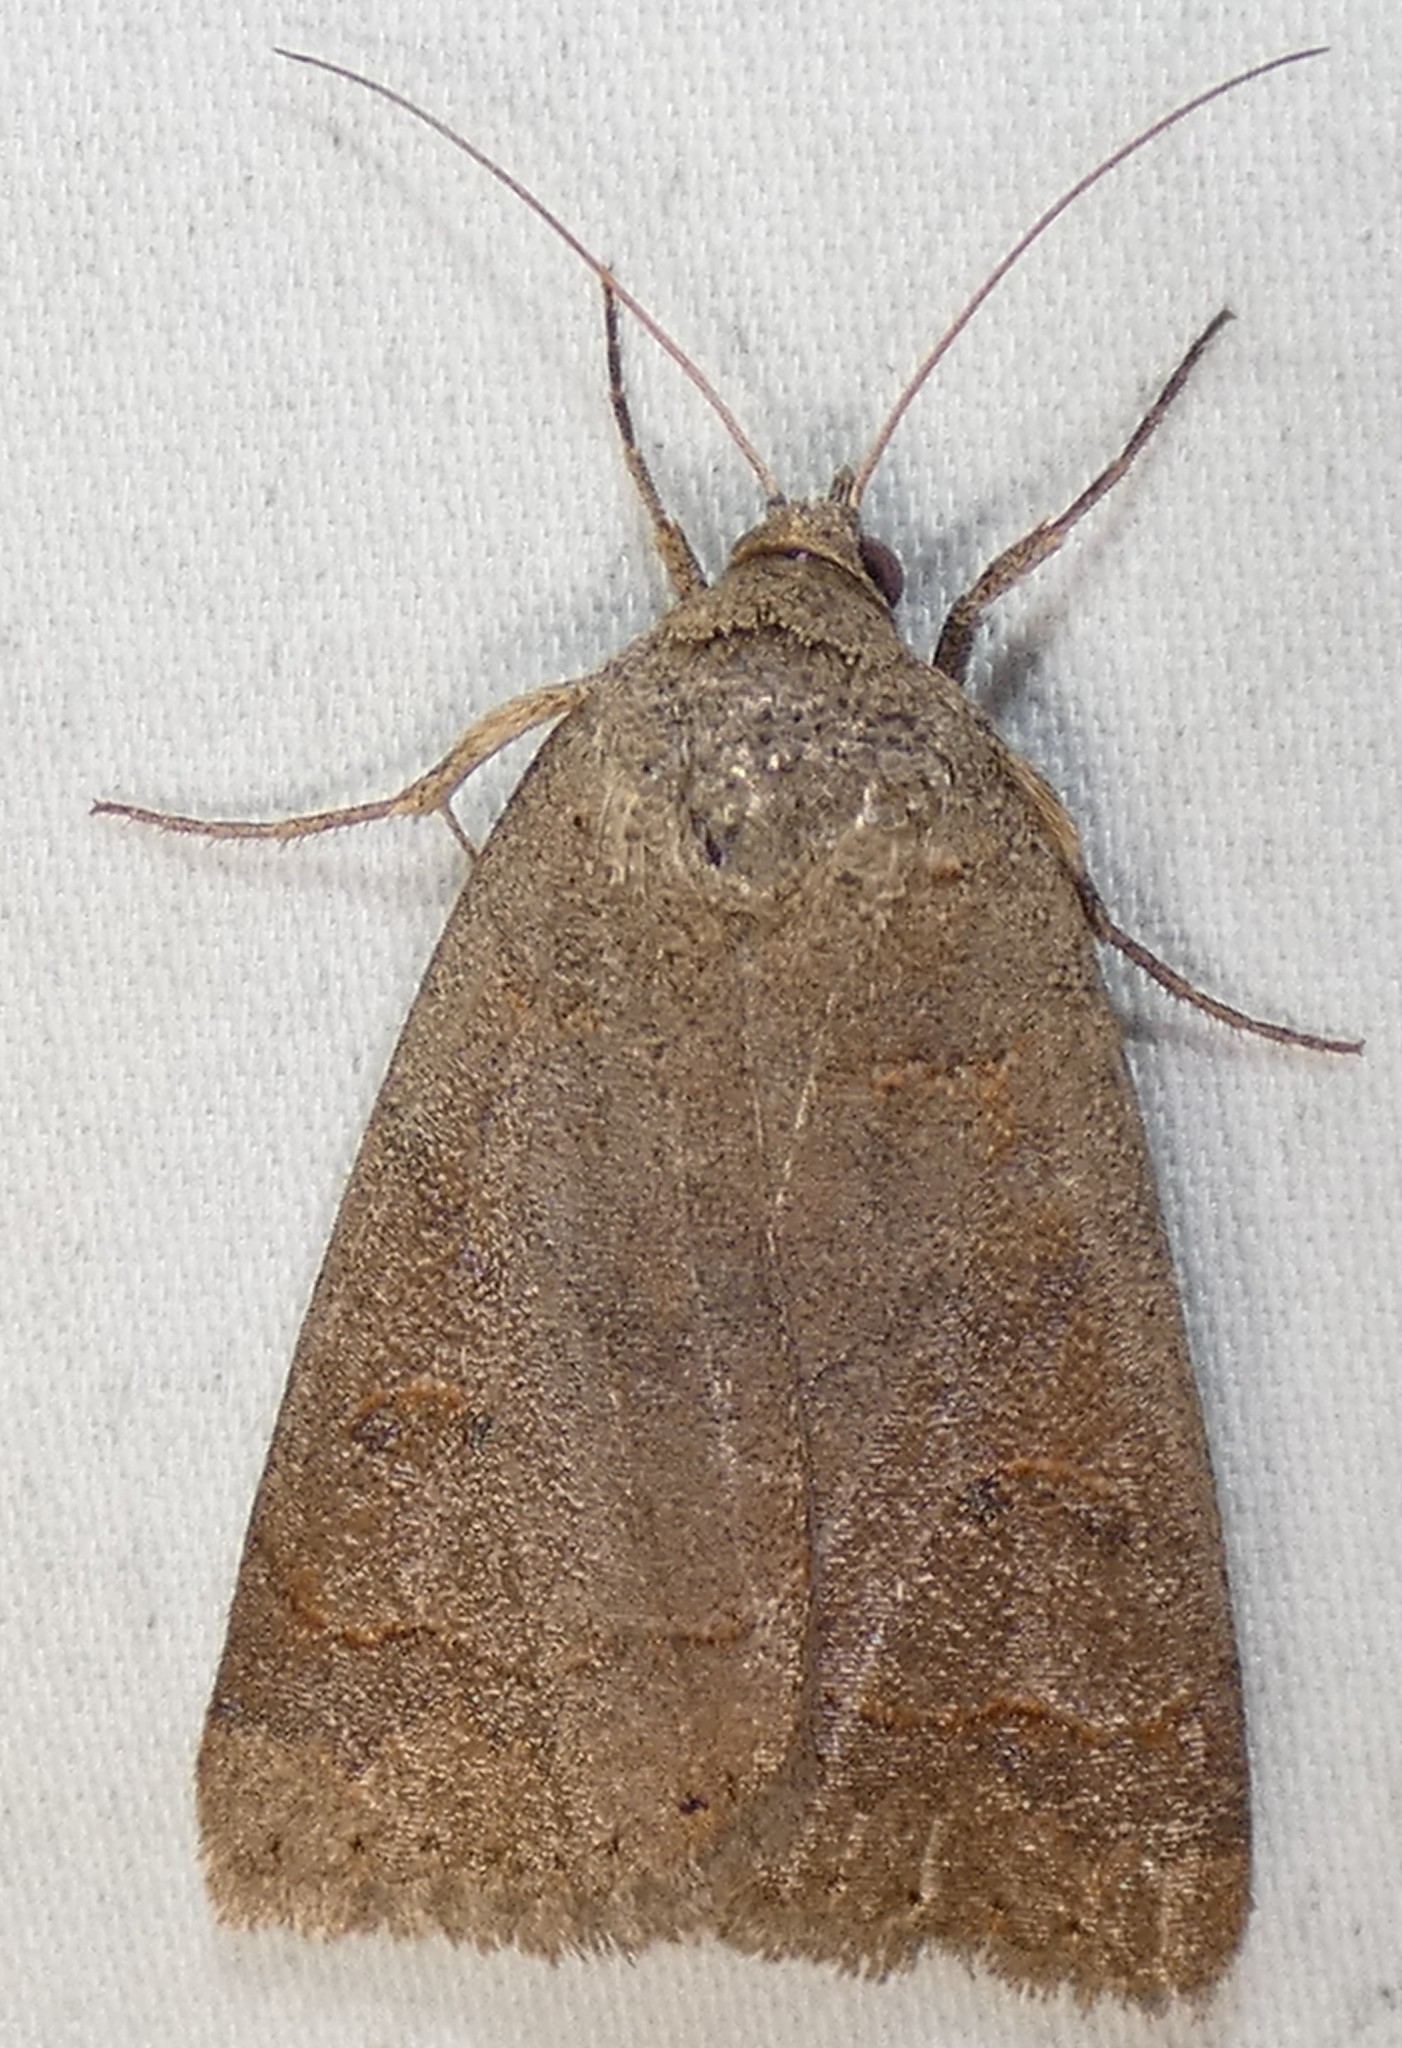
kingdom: Animalia
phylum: Arthropoda
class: Insecta
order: Lepidoptera
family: Erebidae
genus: Phoberia
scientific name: Phoberia atomaris
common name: Common oak moth
